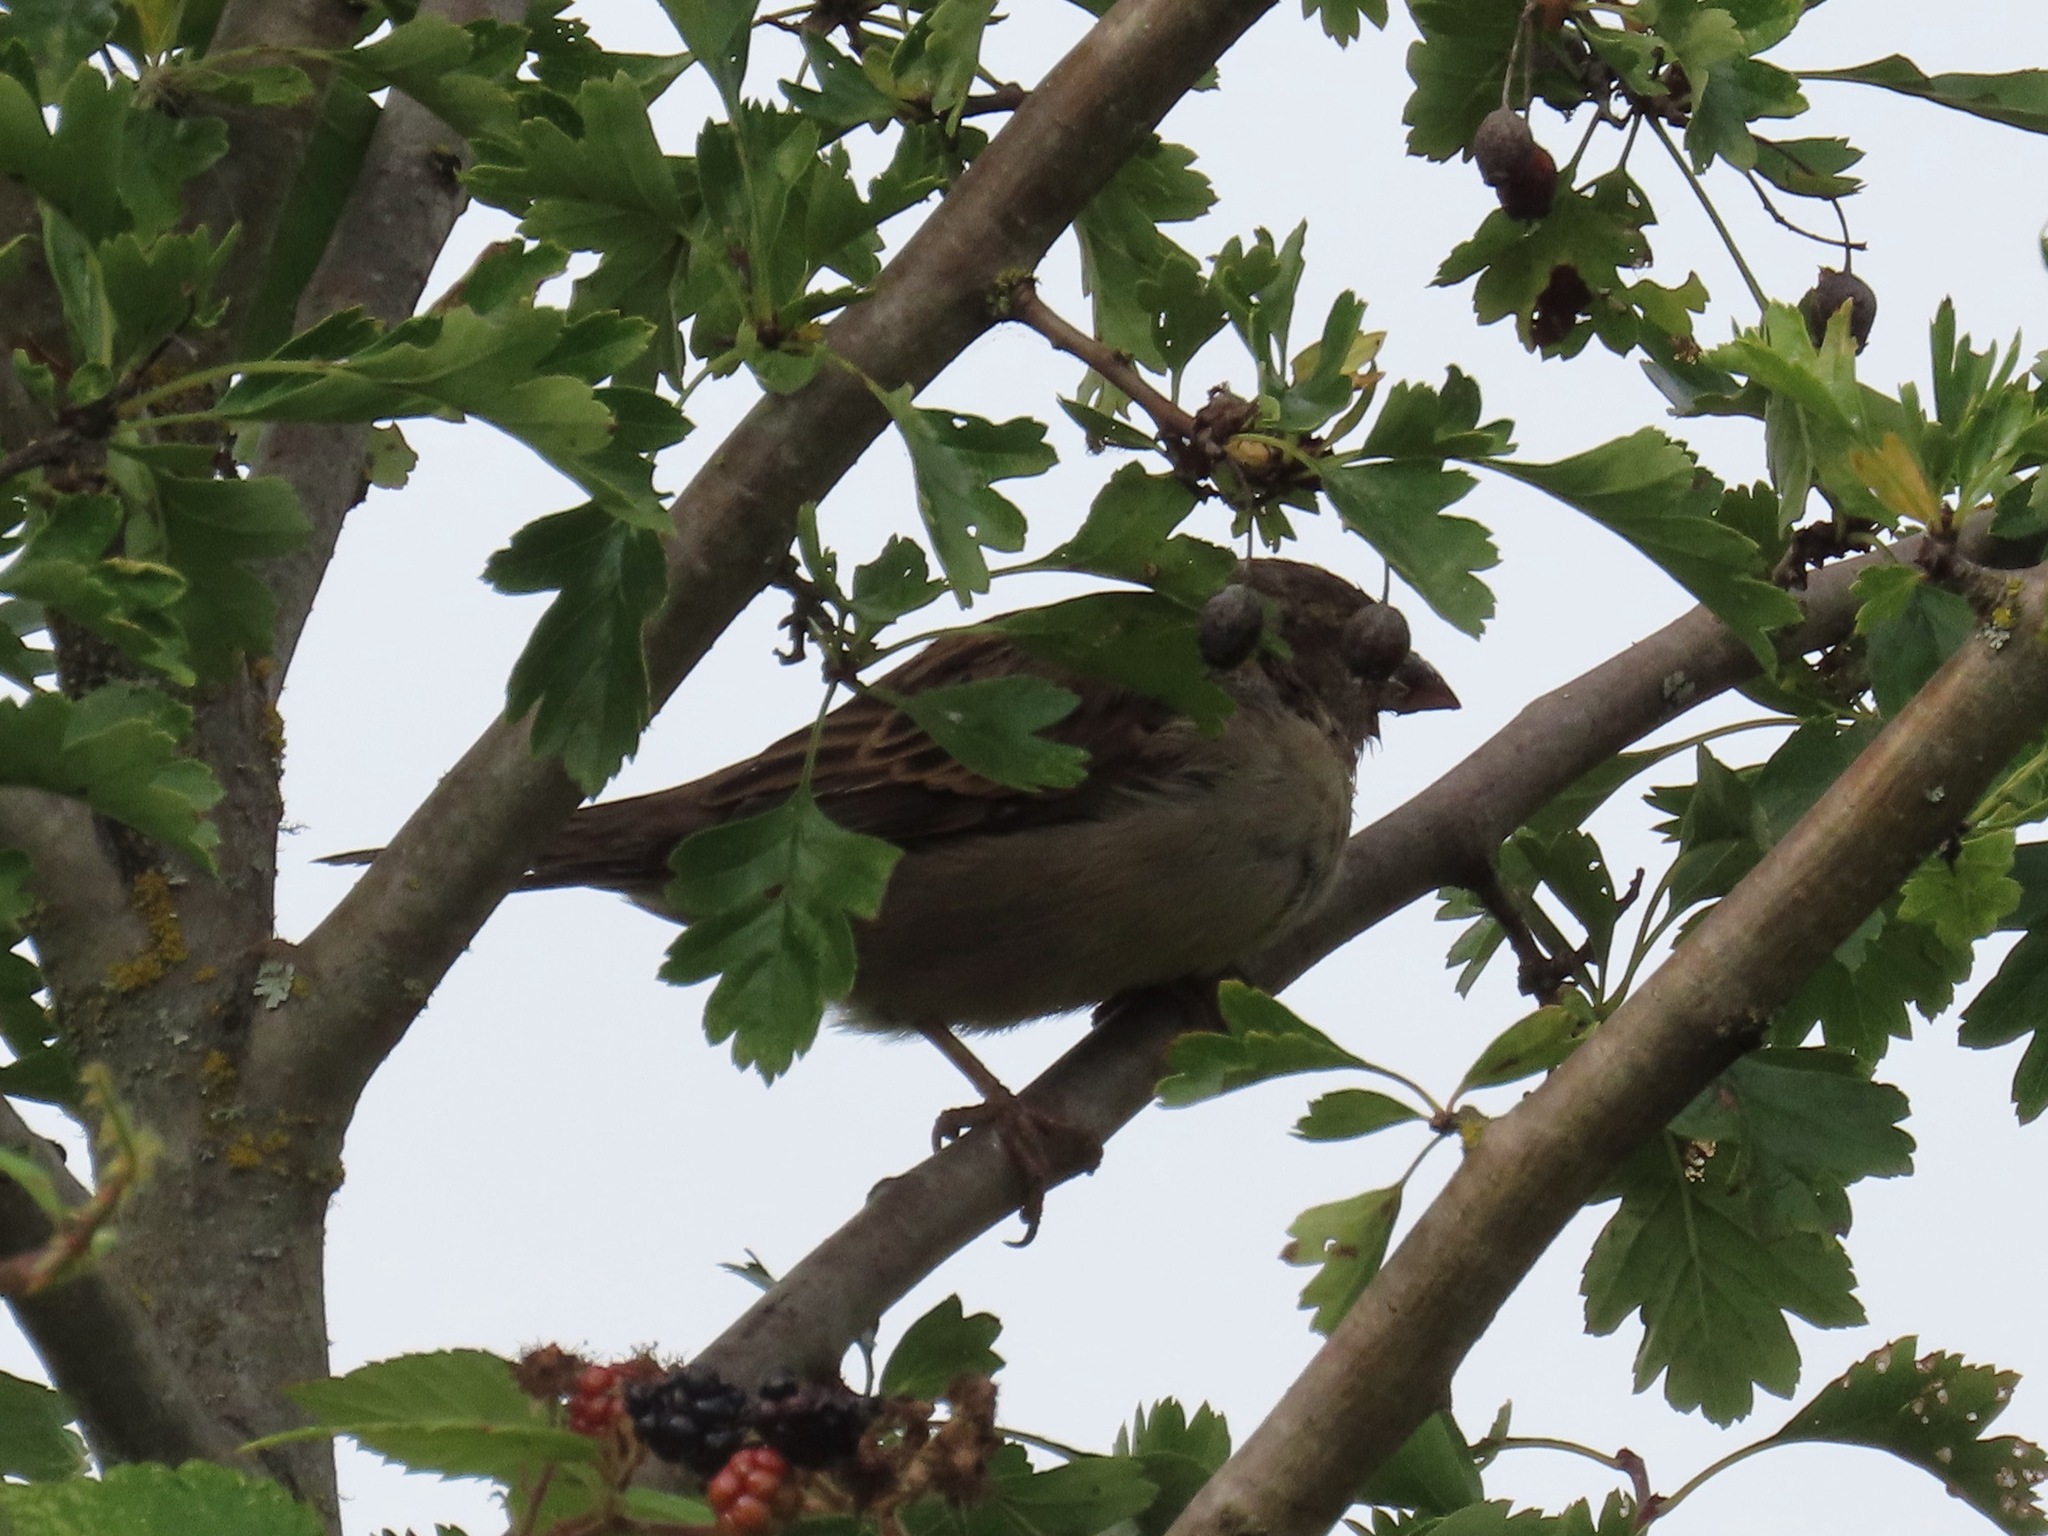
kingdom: Animalia
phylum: Chordata
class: Aves
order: Passeriformes
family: Passeridae
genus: Passer
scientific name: Passer domesticus
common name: House sparrow
